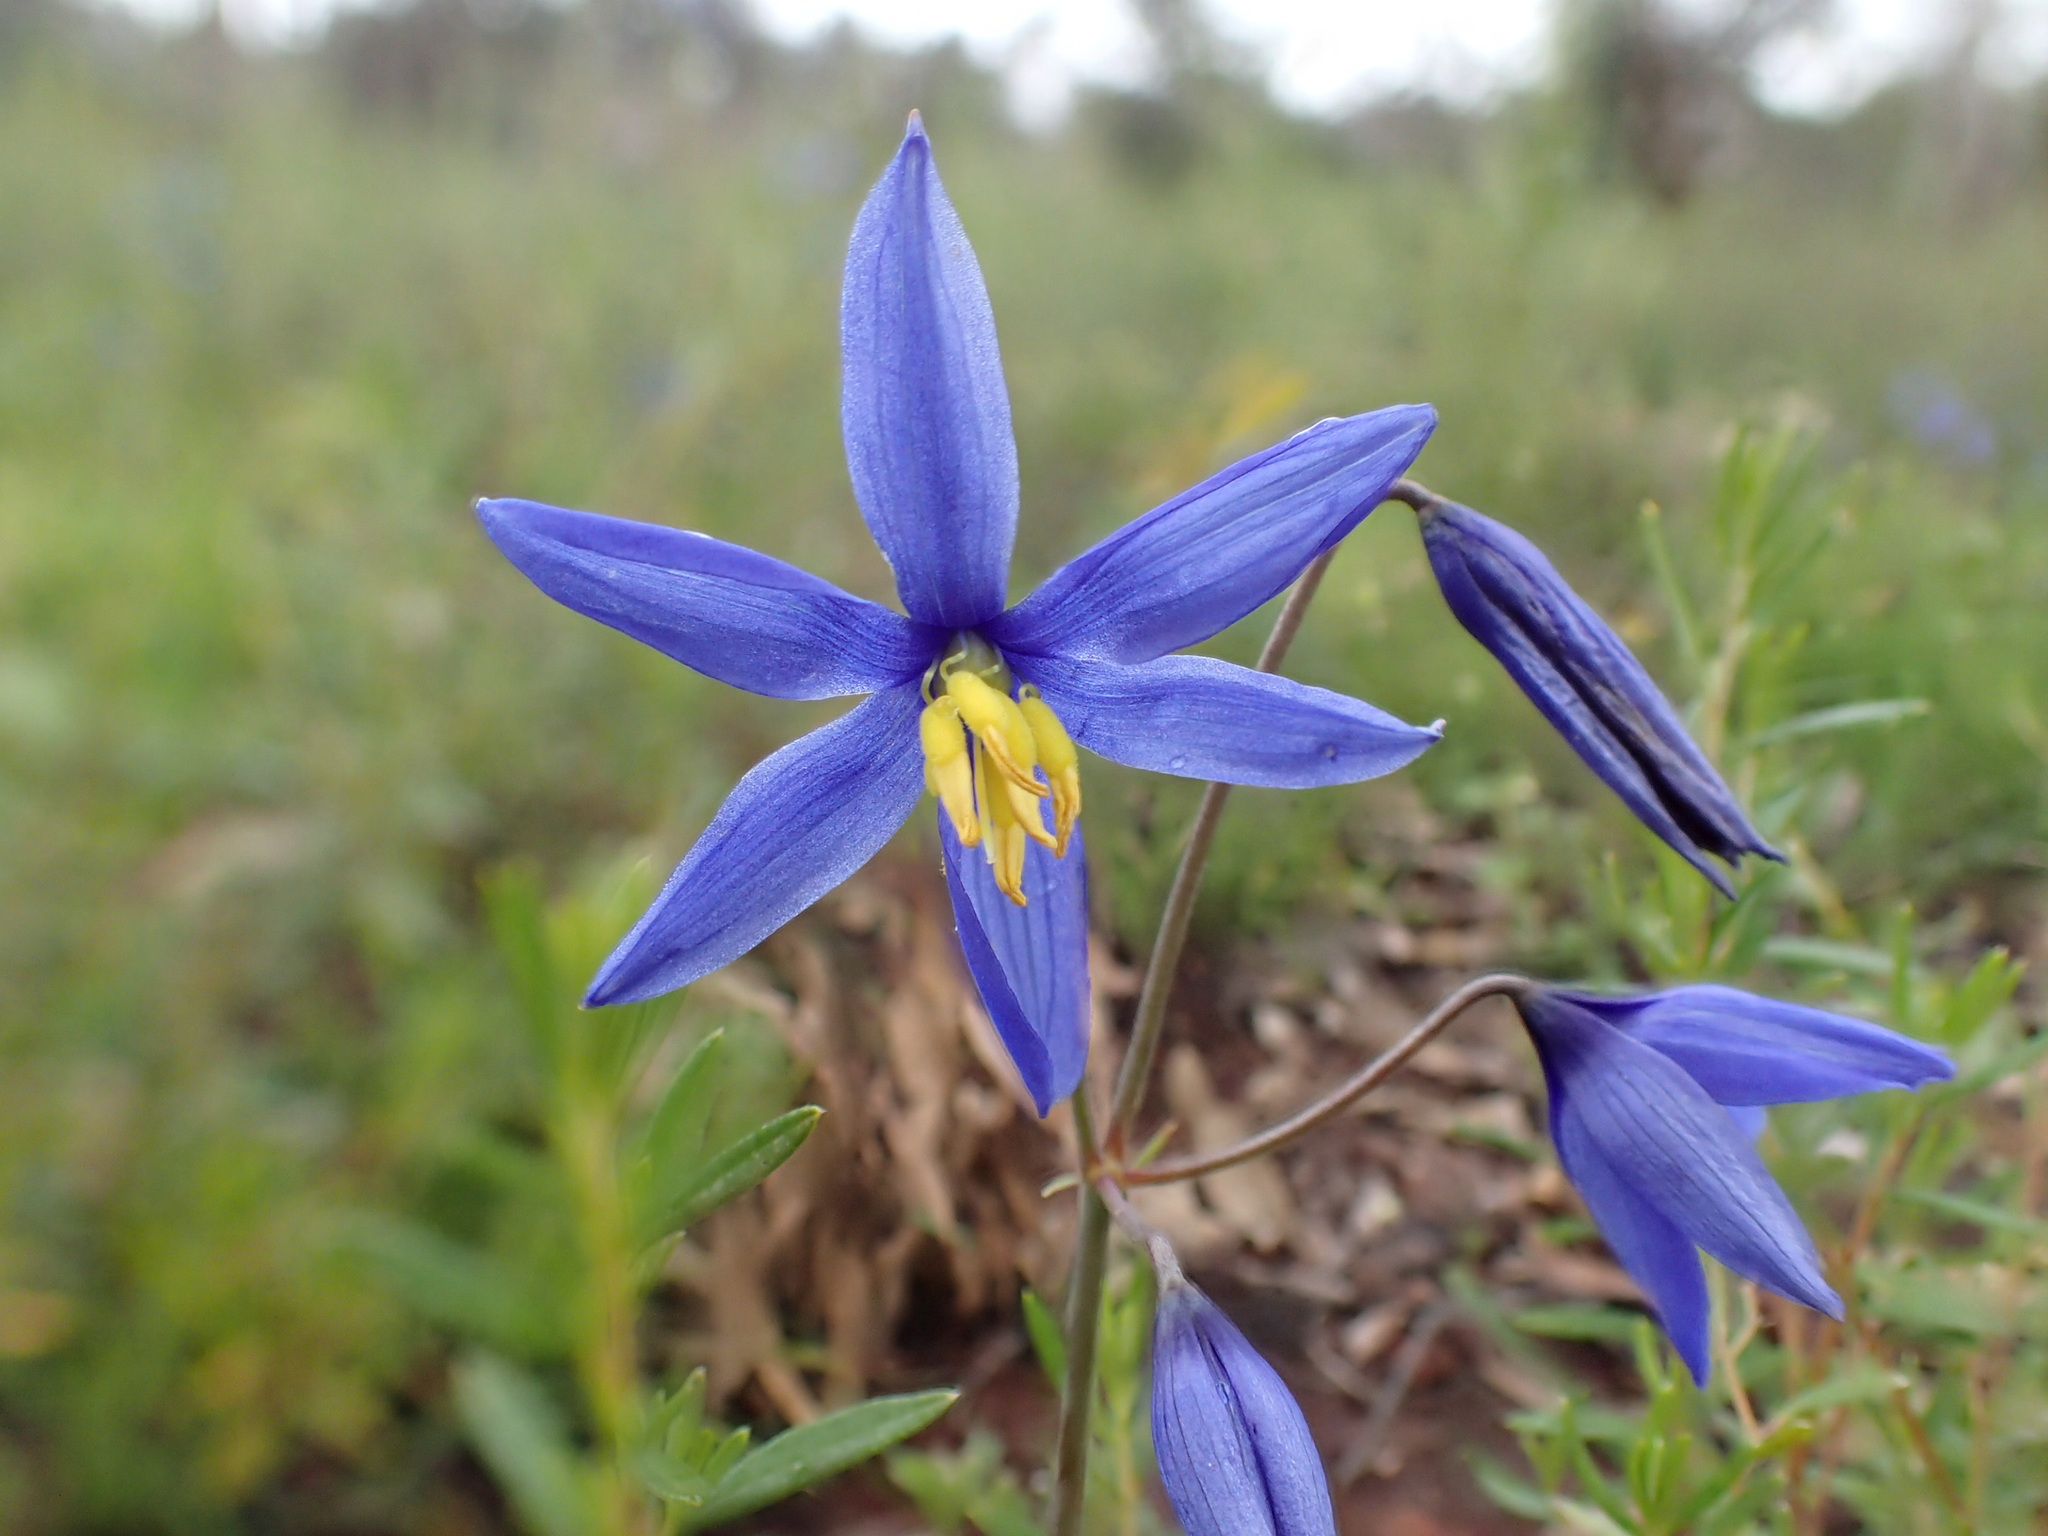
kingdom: Plantae
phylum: Tracheophyta
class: Liliopsida
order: Asparagales
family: Asphodelaceae
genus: Stypandra
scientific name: Stypandra glauca
